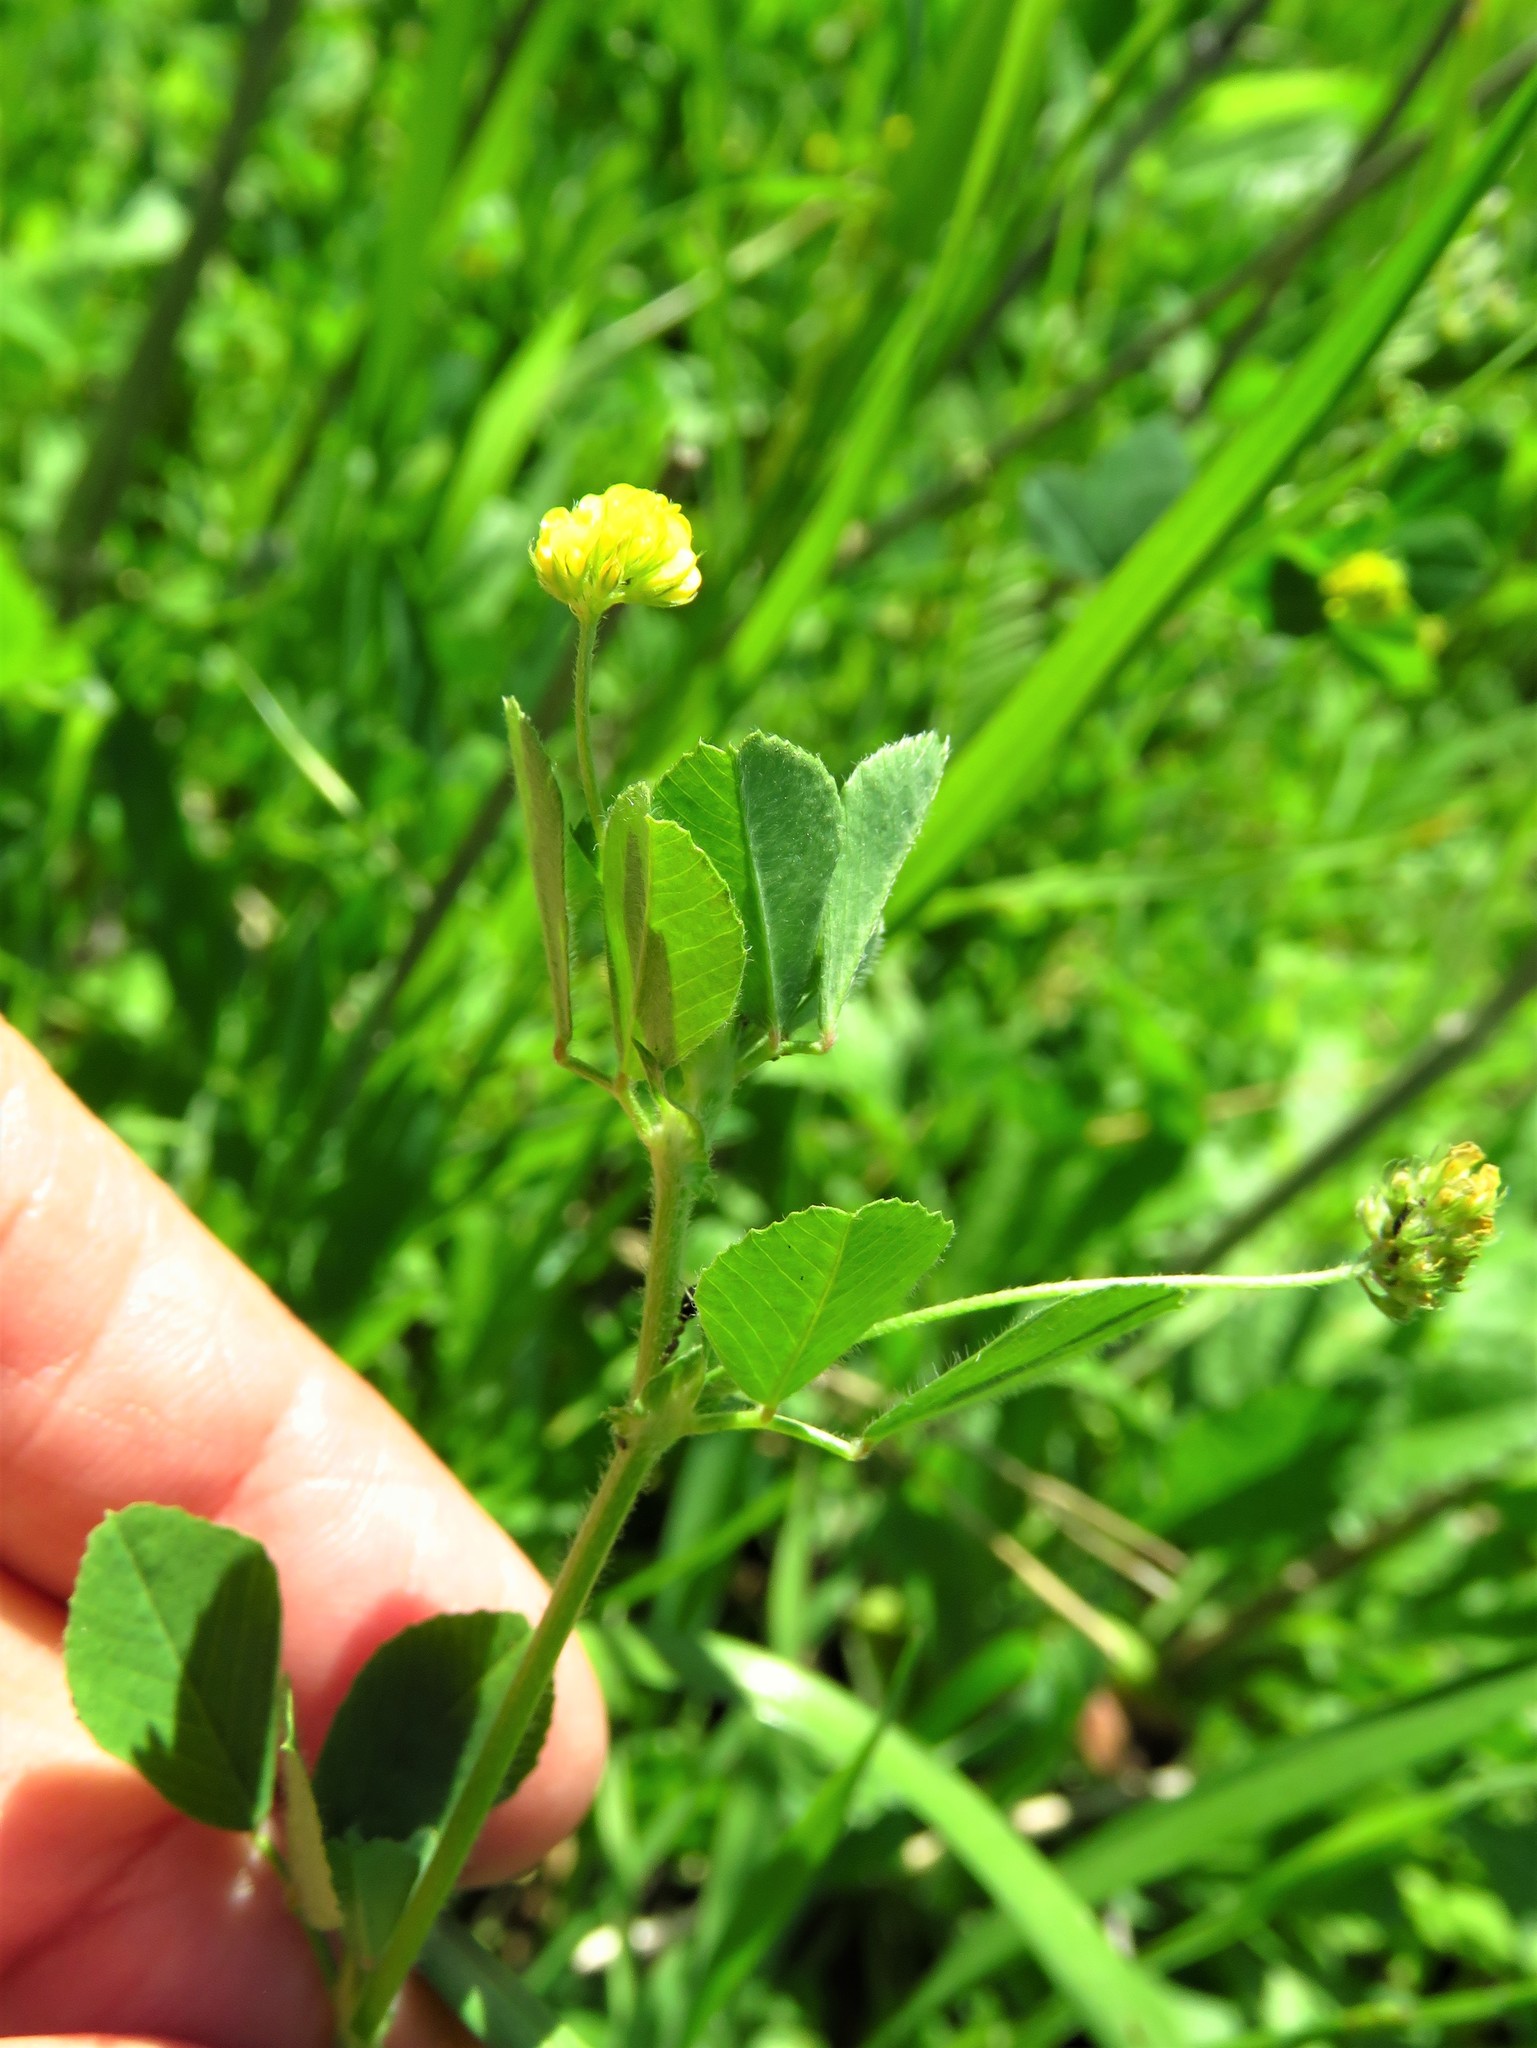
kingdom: Plantae
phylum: Tracheophyta
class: Magnoliopsida
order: Fabales
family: Fabaceae
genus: Medicago
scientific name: Medicago lupulina
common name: Black medick
